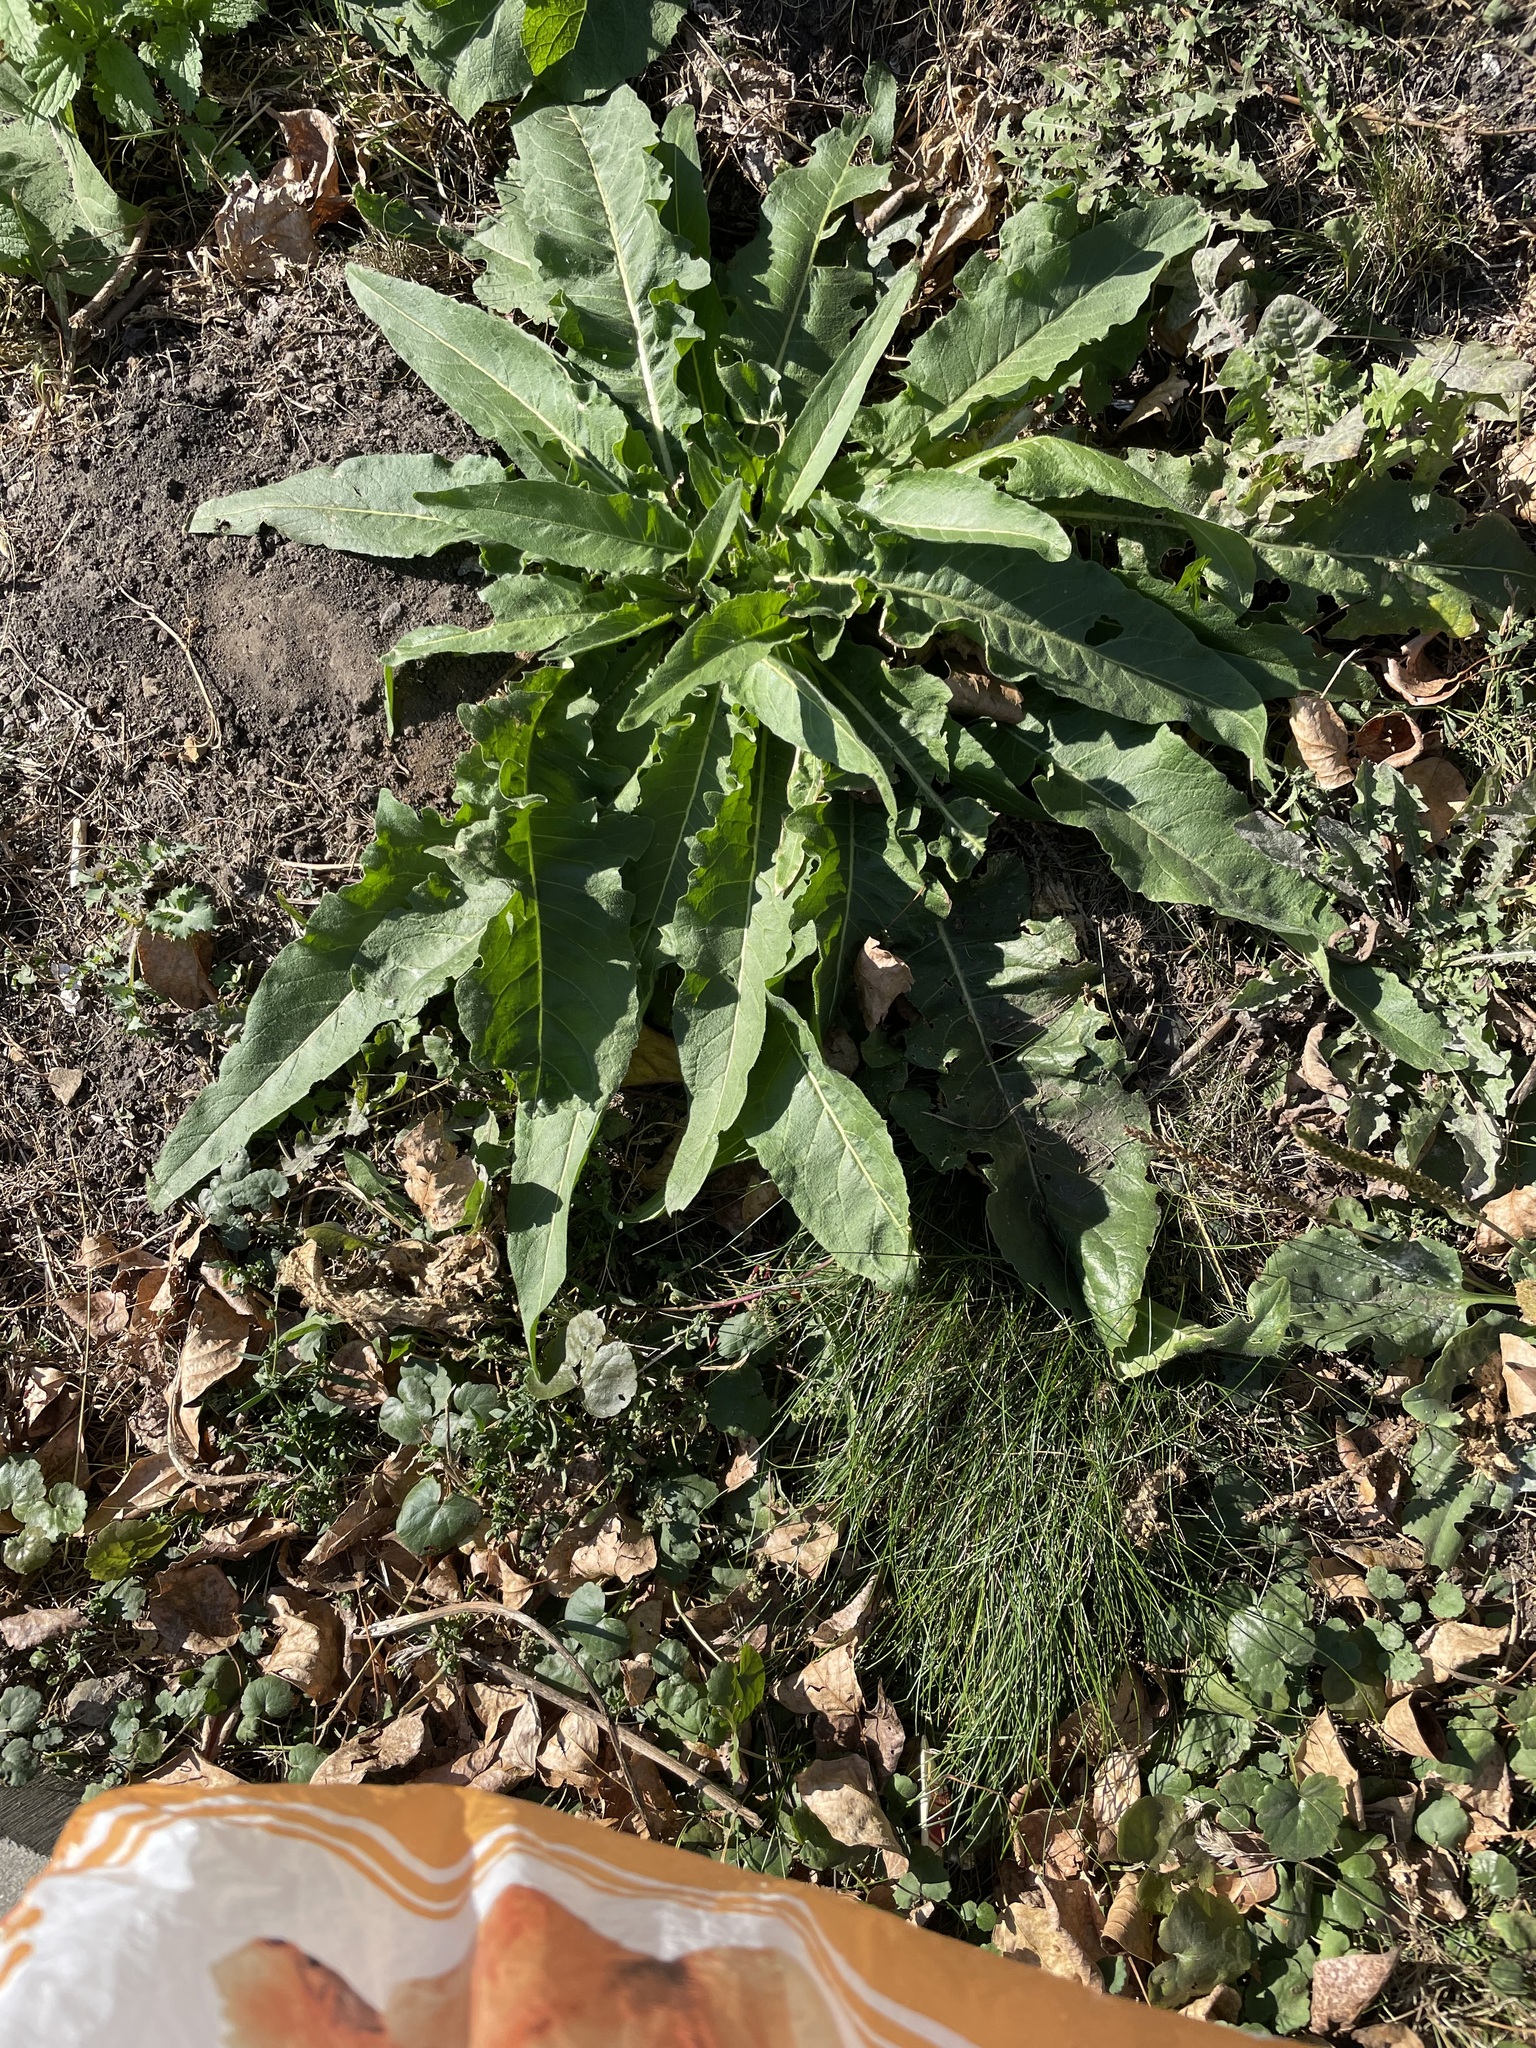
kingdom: Plantae
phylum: Tracheophyta
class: Magnoliopsida
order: Brassicales
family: Brassicaceae
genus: Bunias
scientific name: Bunias orientalis
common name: Warty-cabbage
